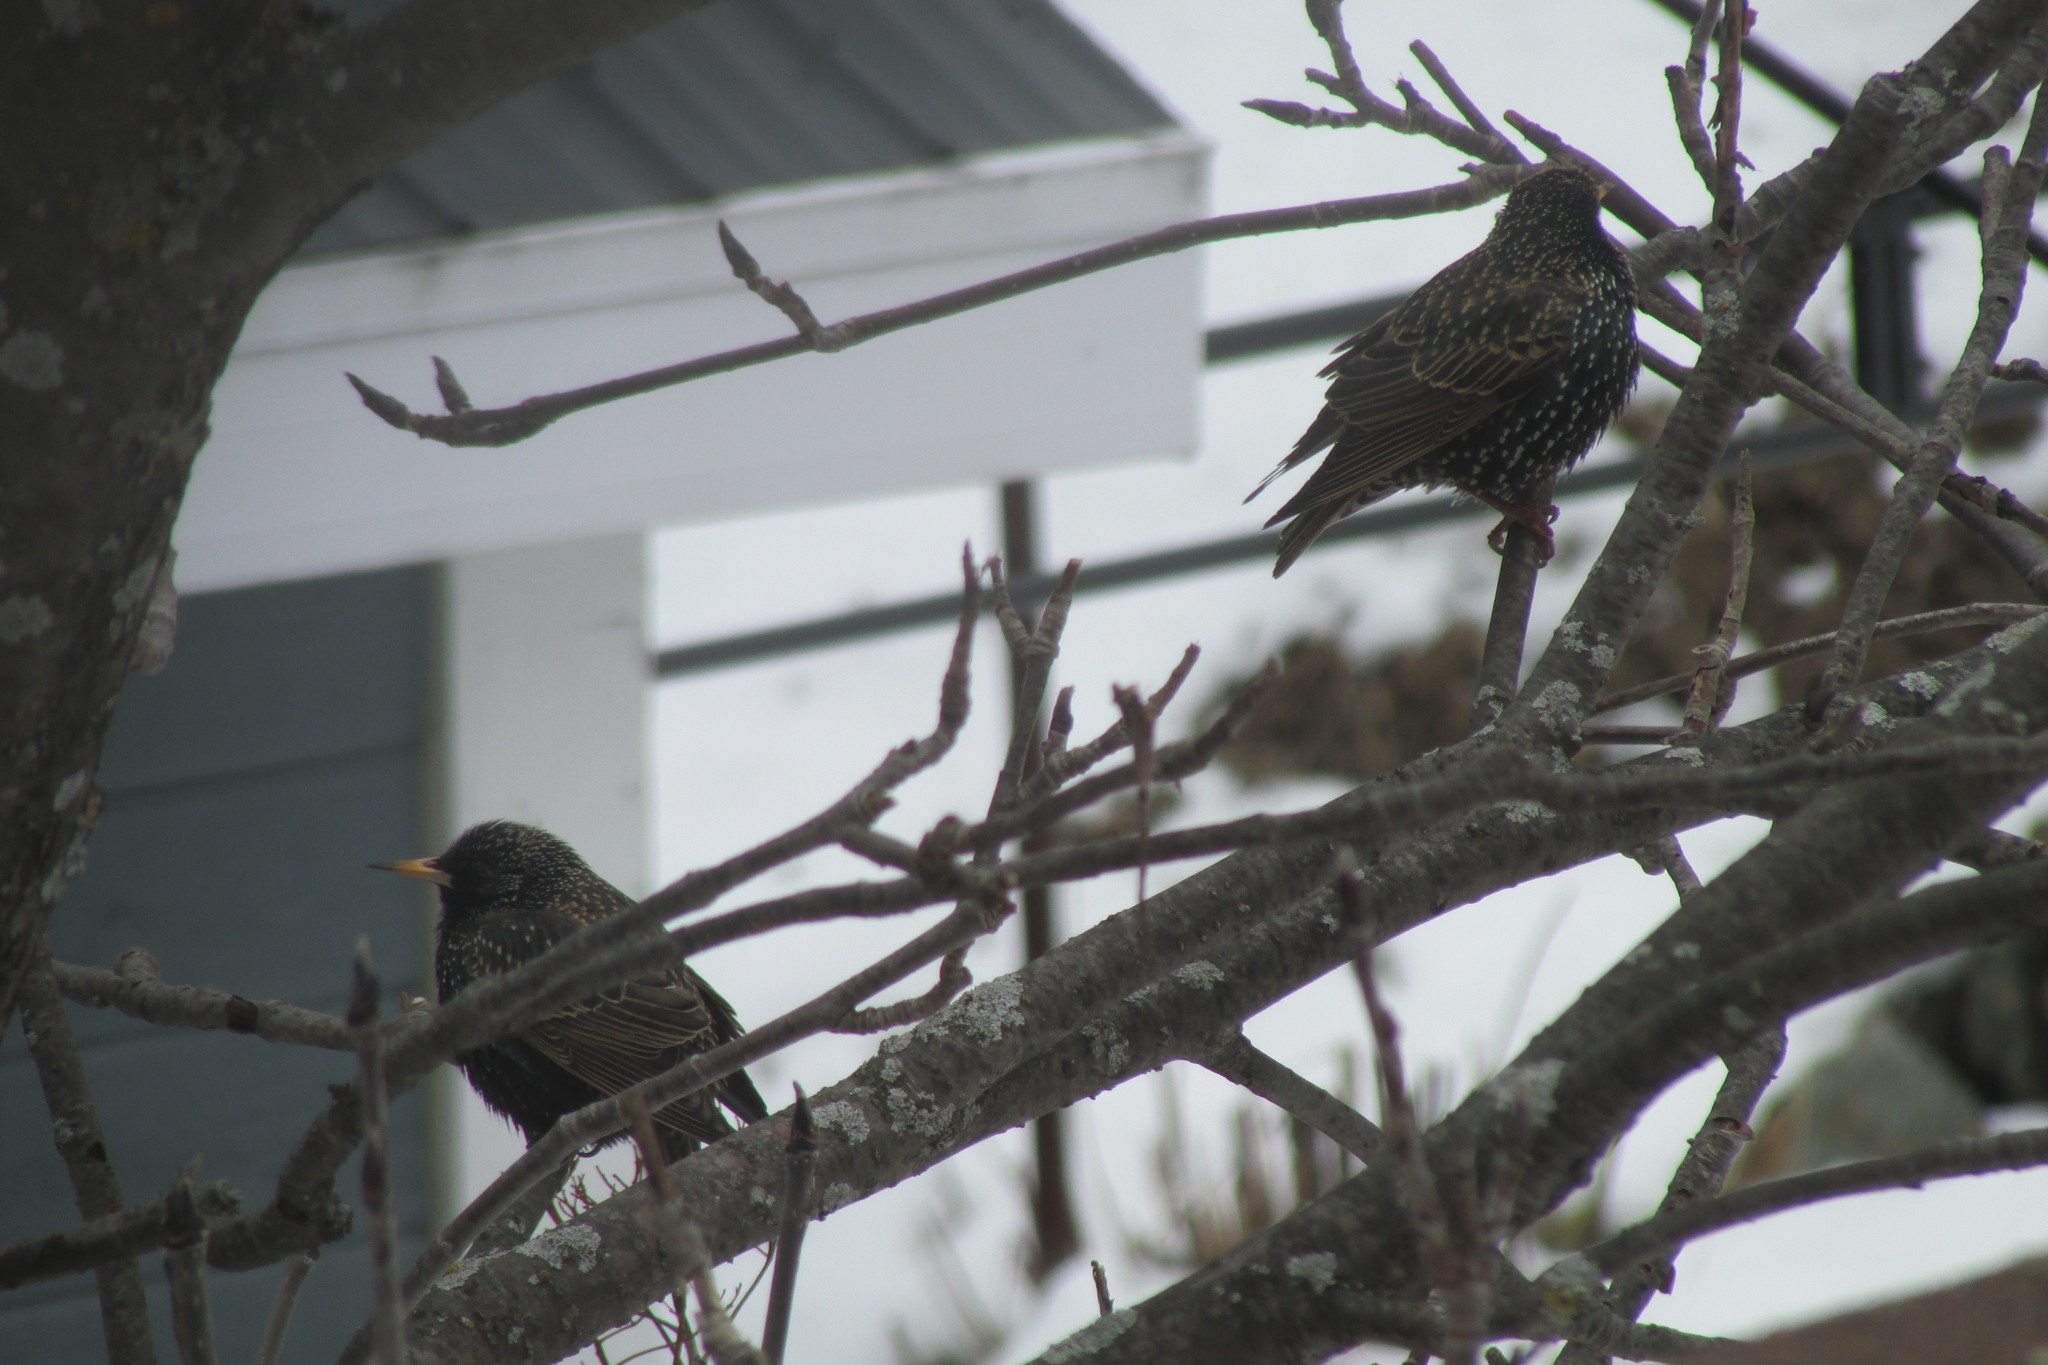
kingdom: Animalia
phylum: Chordata
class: Aves
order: Passeriformes
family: Sturnidae
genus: Sturnus
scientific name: Sturnus vulgaris
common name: Common starling
